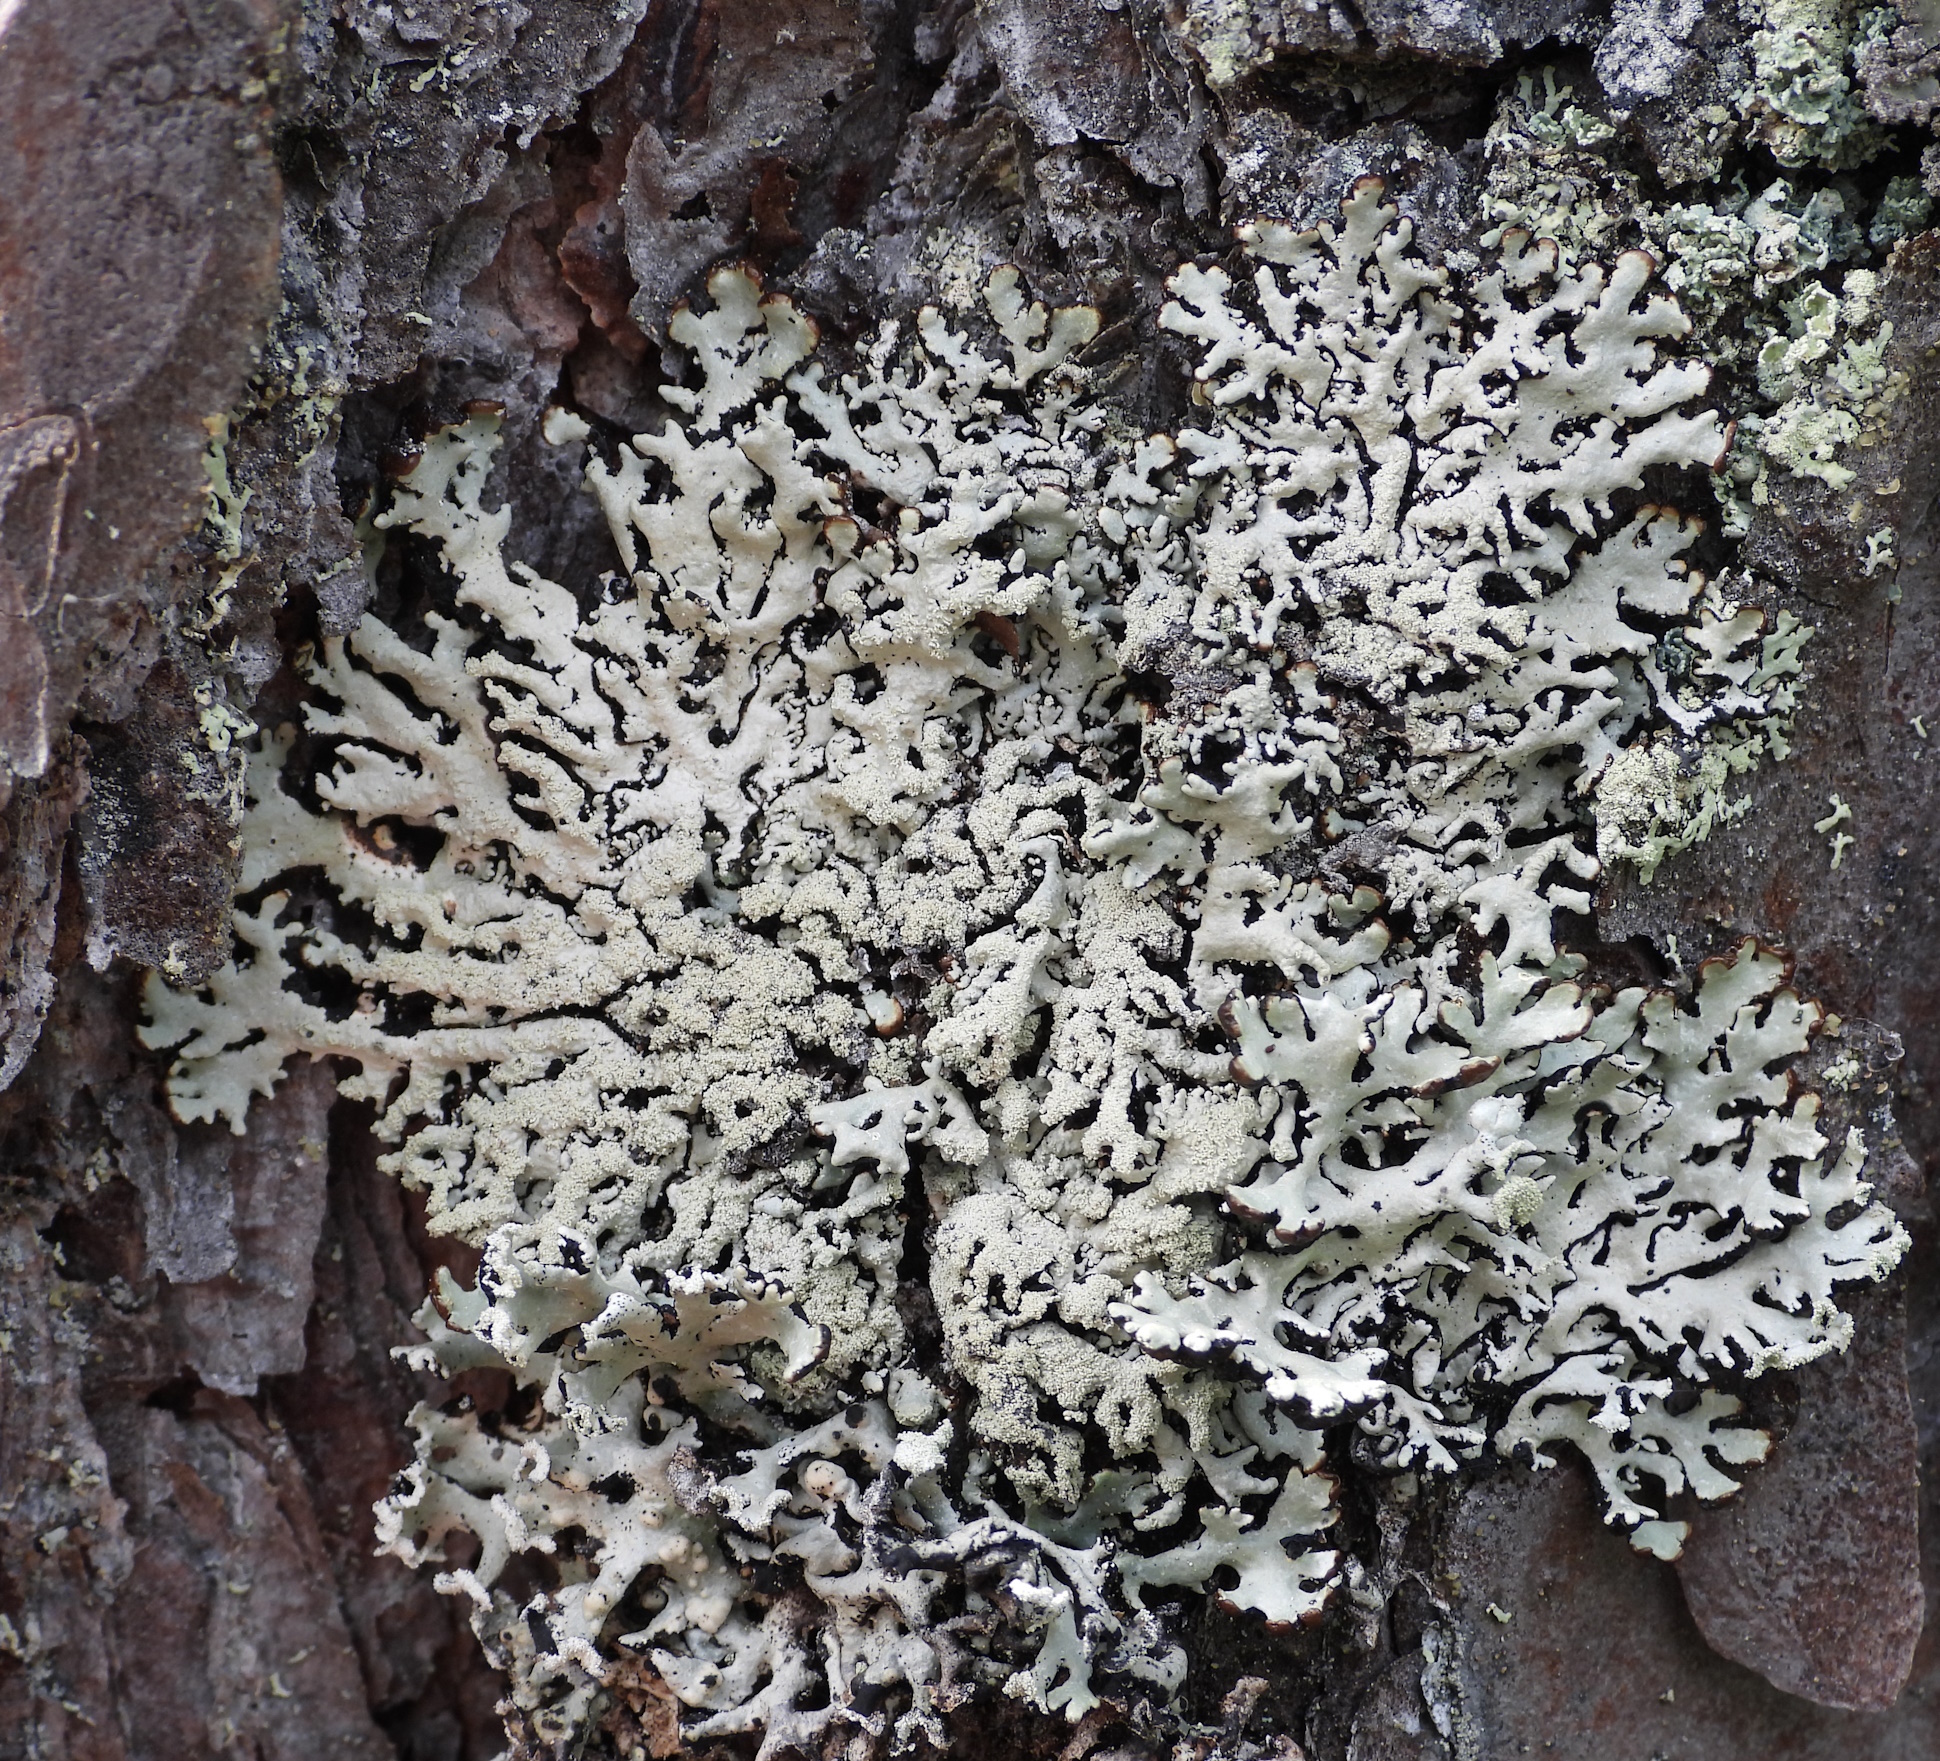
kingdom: Fungi
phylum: Ascomycota
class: Lecanoromycetes
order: Lecanorales
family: Parmeliaceae
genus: Hypogymnia
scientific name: Hypogymnia farinacea
